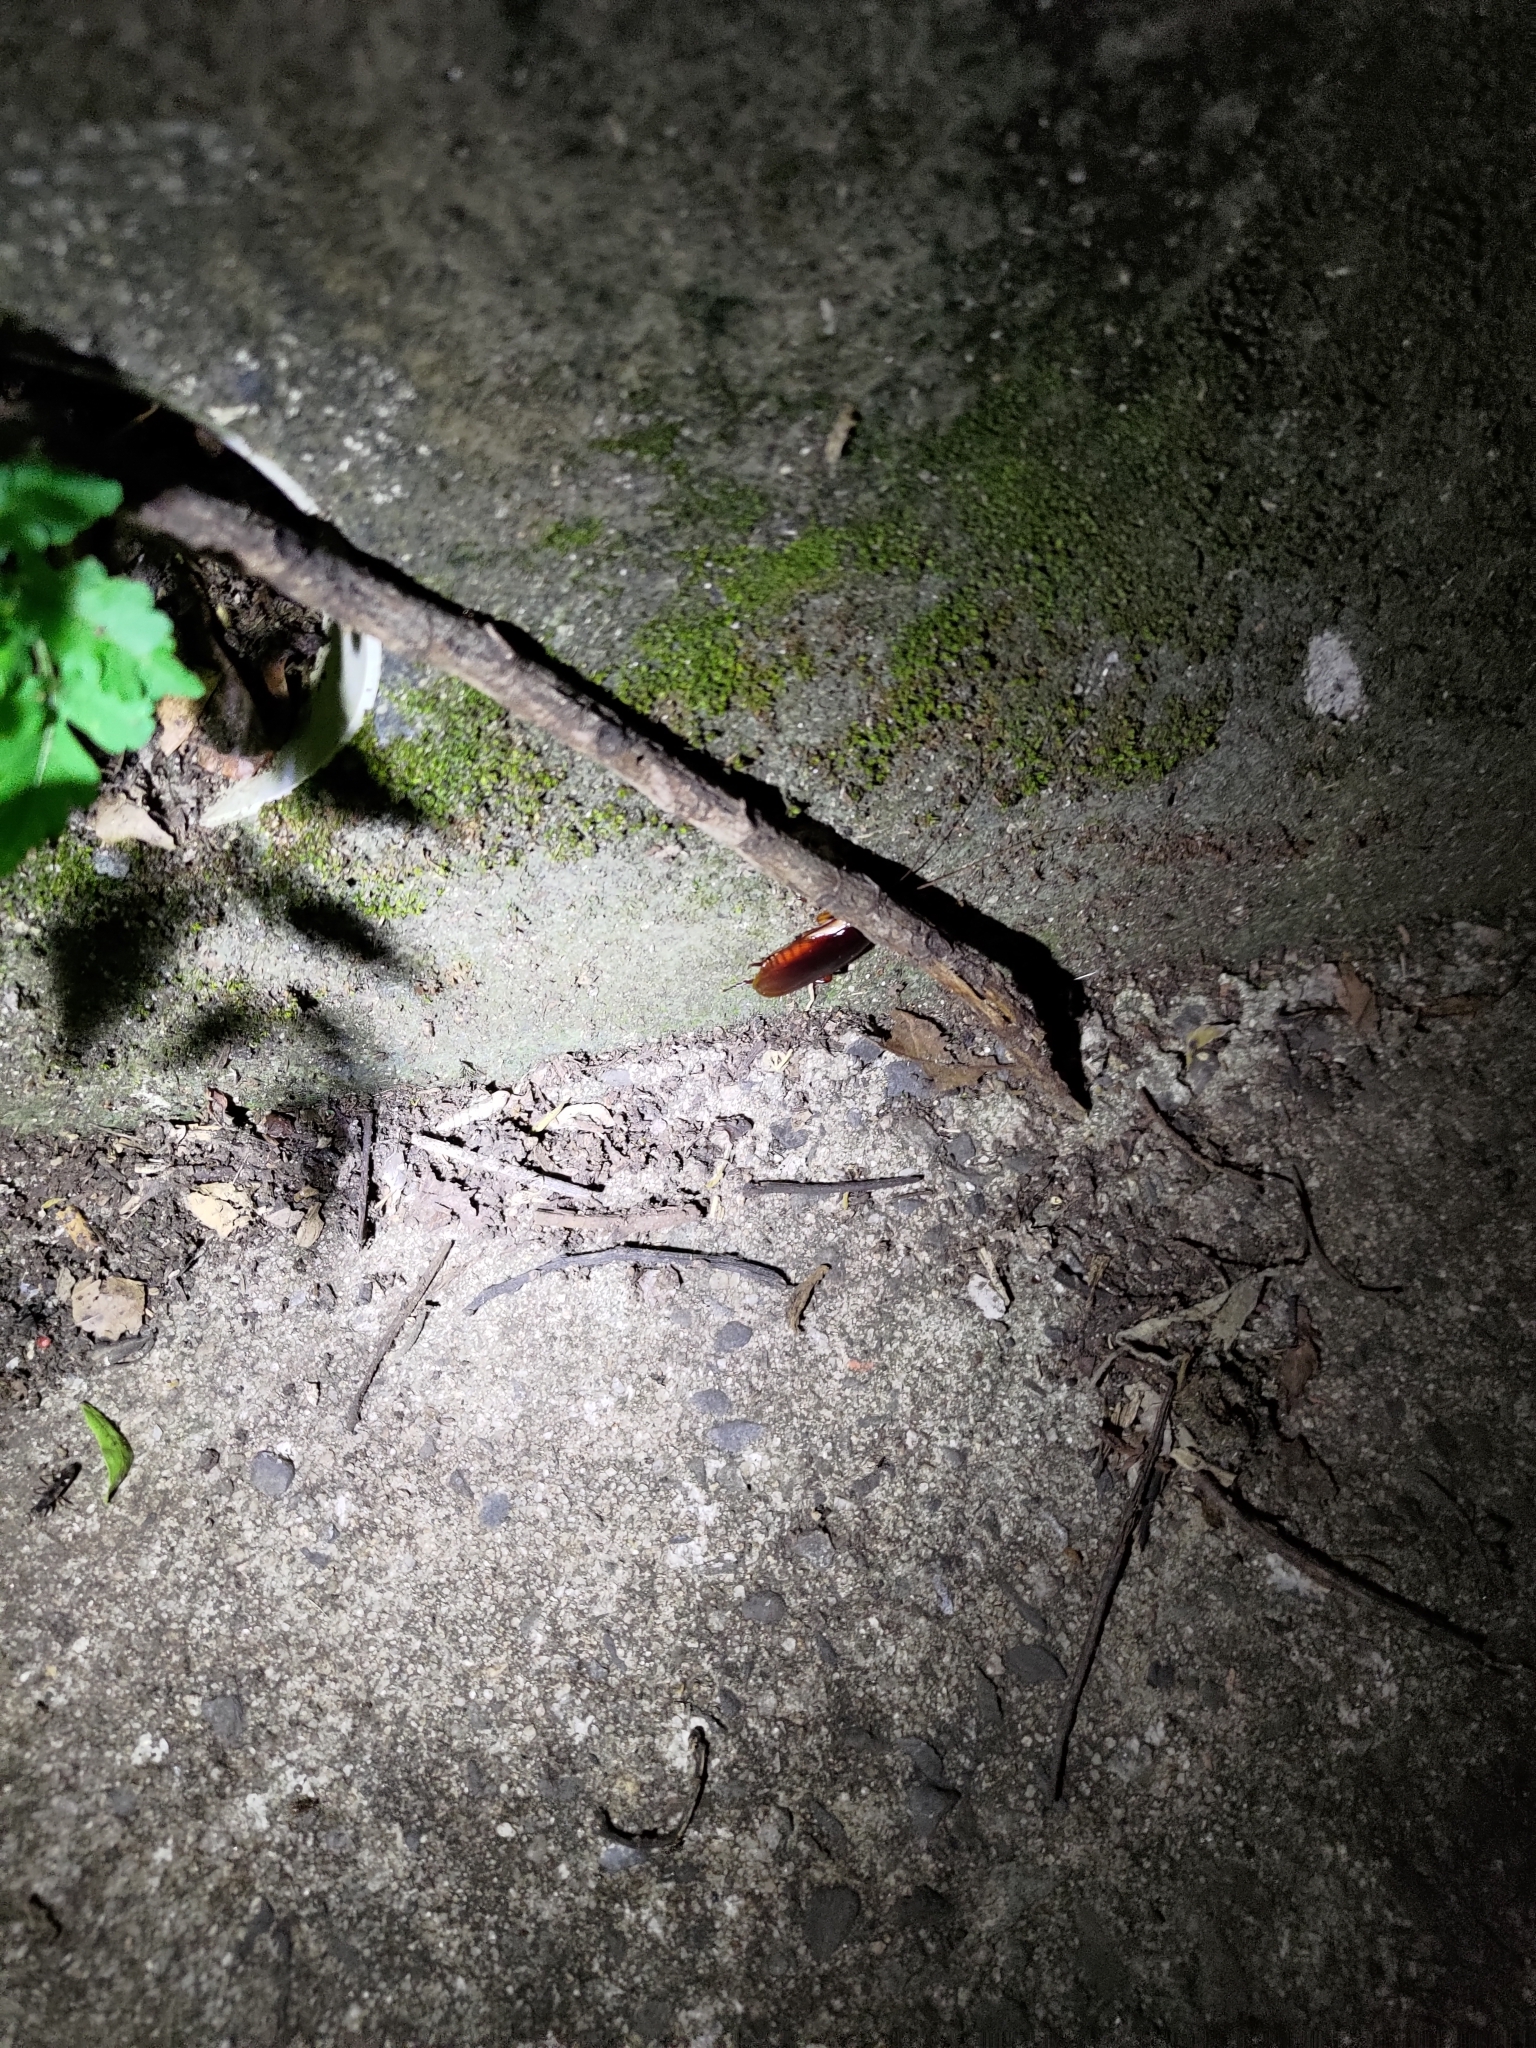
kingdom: Animalia
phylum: Arthropoda
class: Insecta
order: Blattodea
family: Blattidae
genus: Periplaneta
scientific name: Periplaneta australasiae
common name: Australian cockroach
